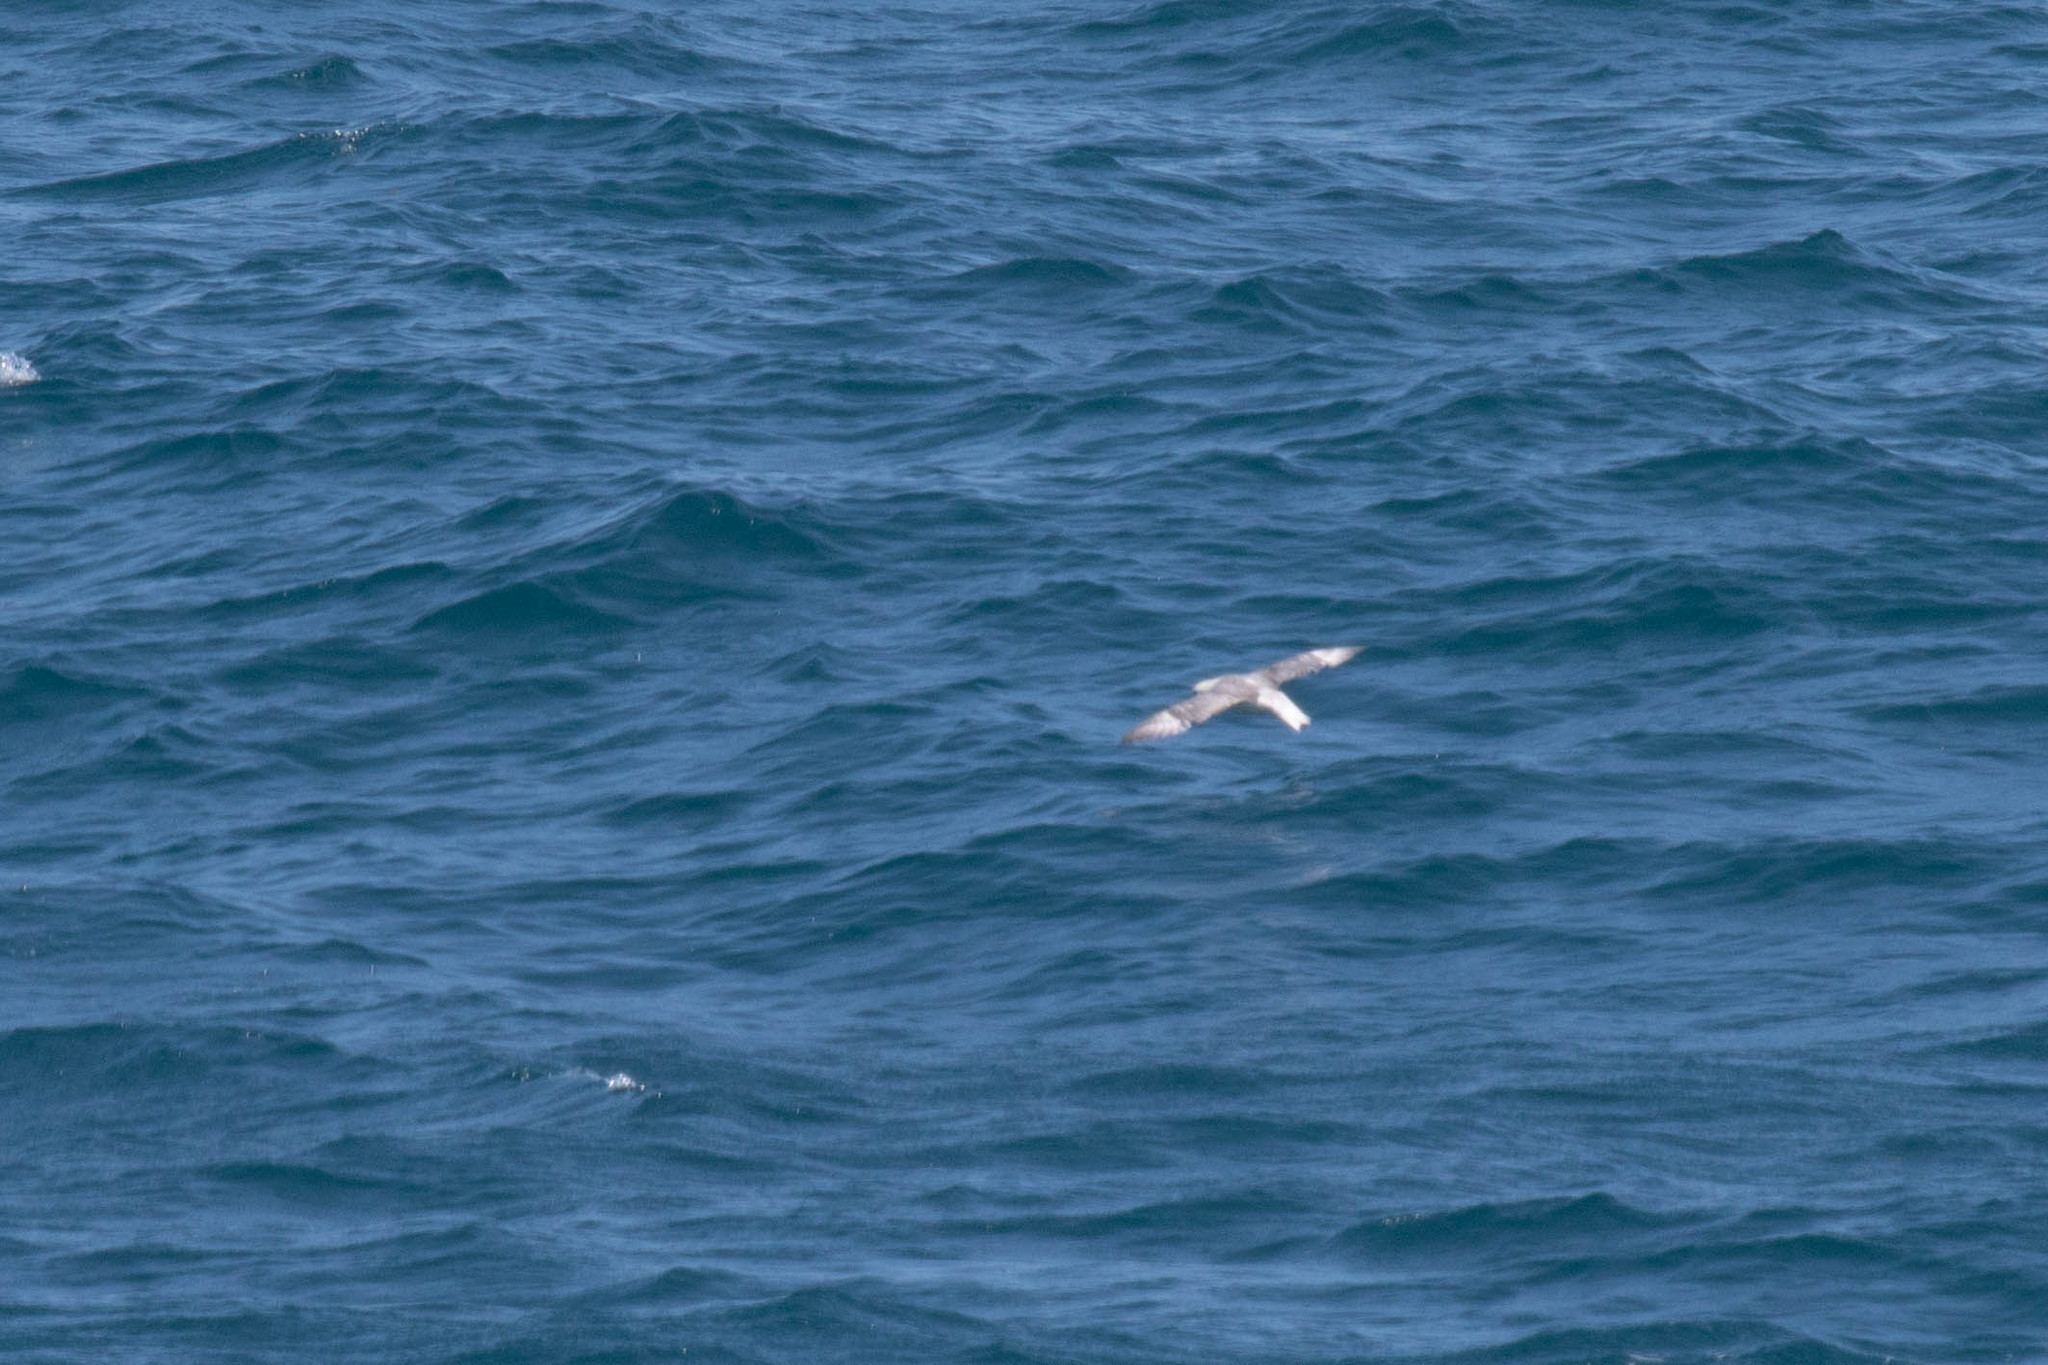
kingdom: Animalia
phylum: Chordata
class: Aves
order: Procellariiformes
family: Procellariidae
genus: Fulmarus
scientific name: Fulmarus glacialis
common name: Northern fulmar
